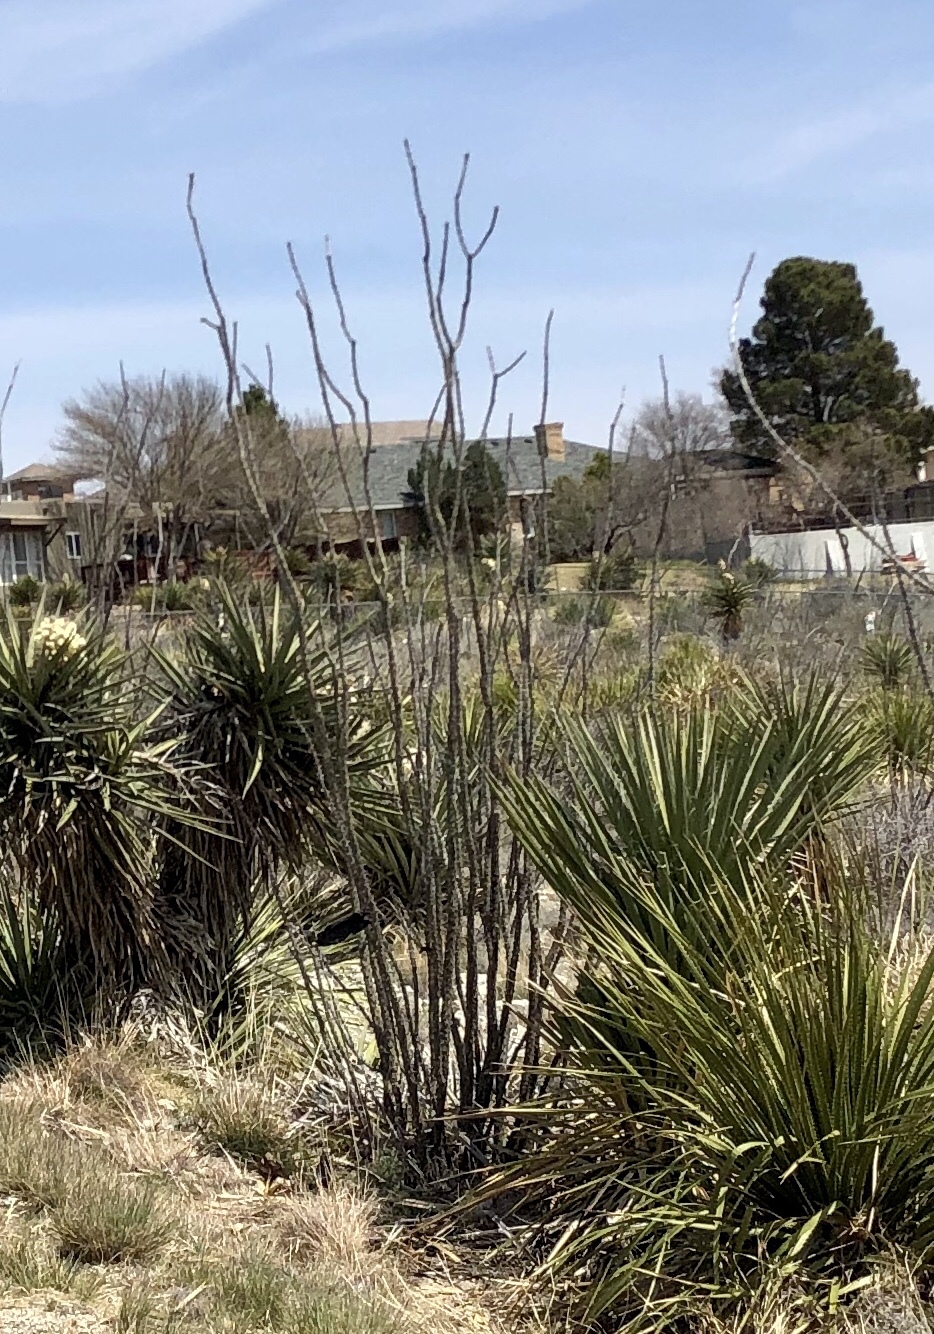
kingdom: Plantae
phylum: Tracheophyta
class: Magnoliopsida
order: Ericales
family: Fouquieriaceae
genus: Fouquieria
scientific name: Fouquieria splendens
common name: Vine-cactus
